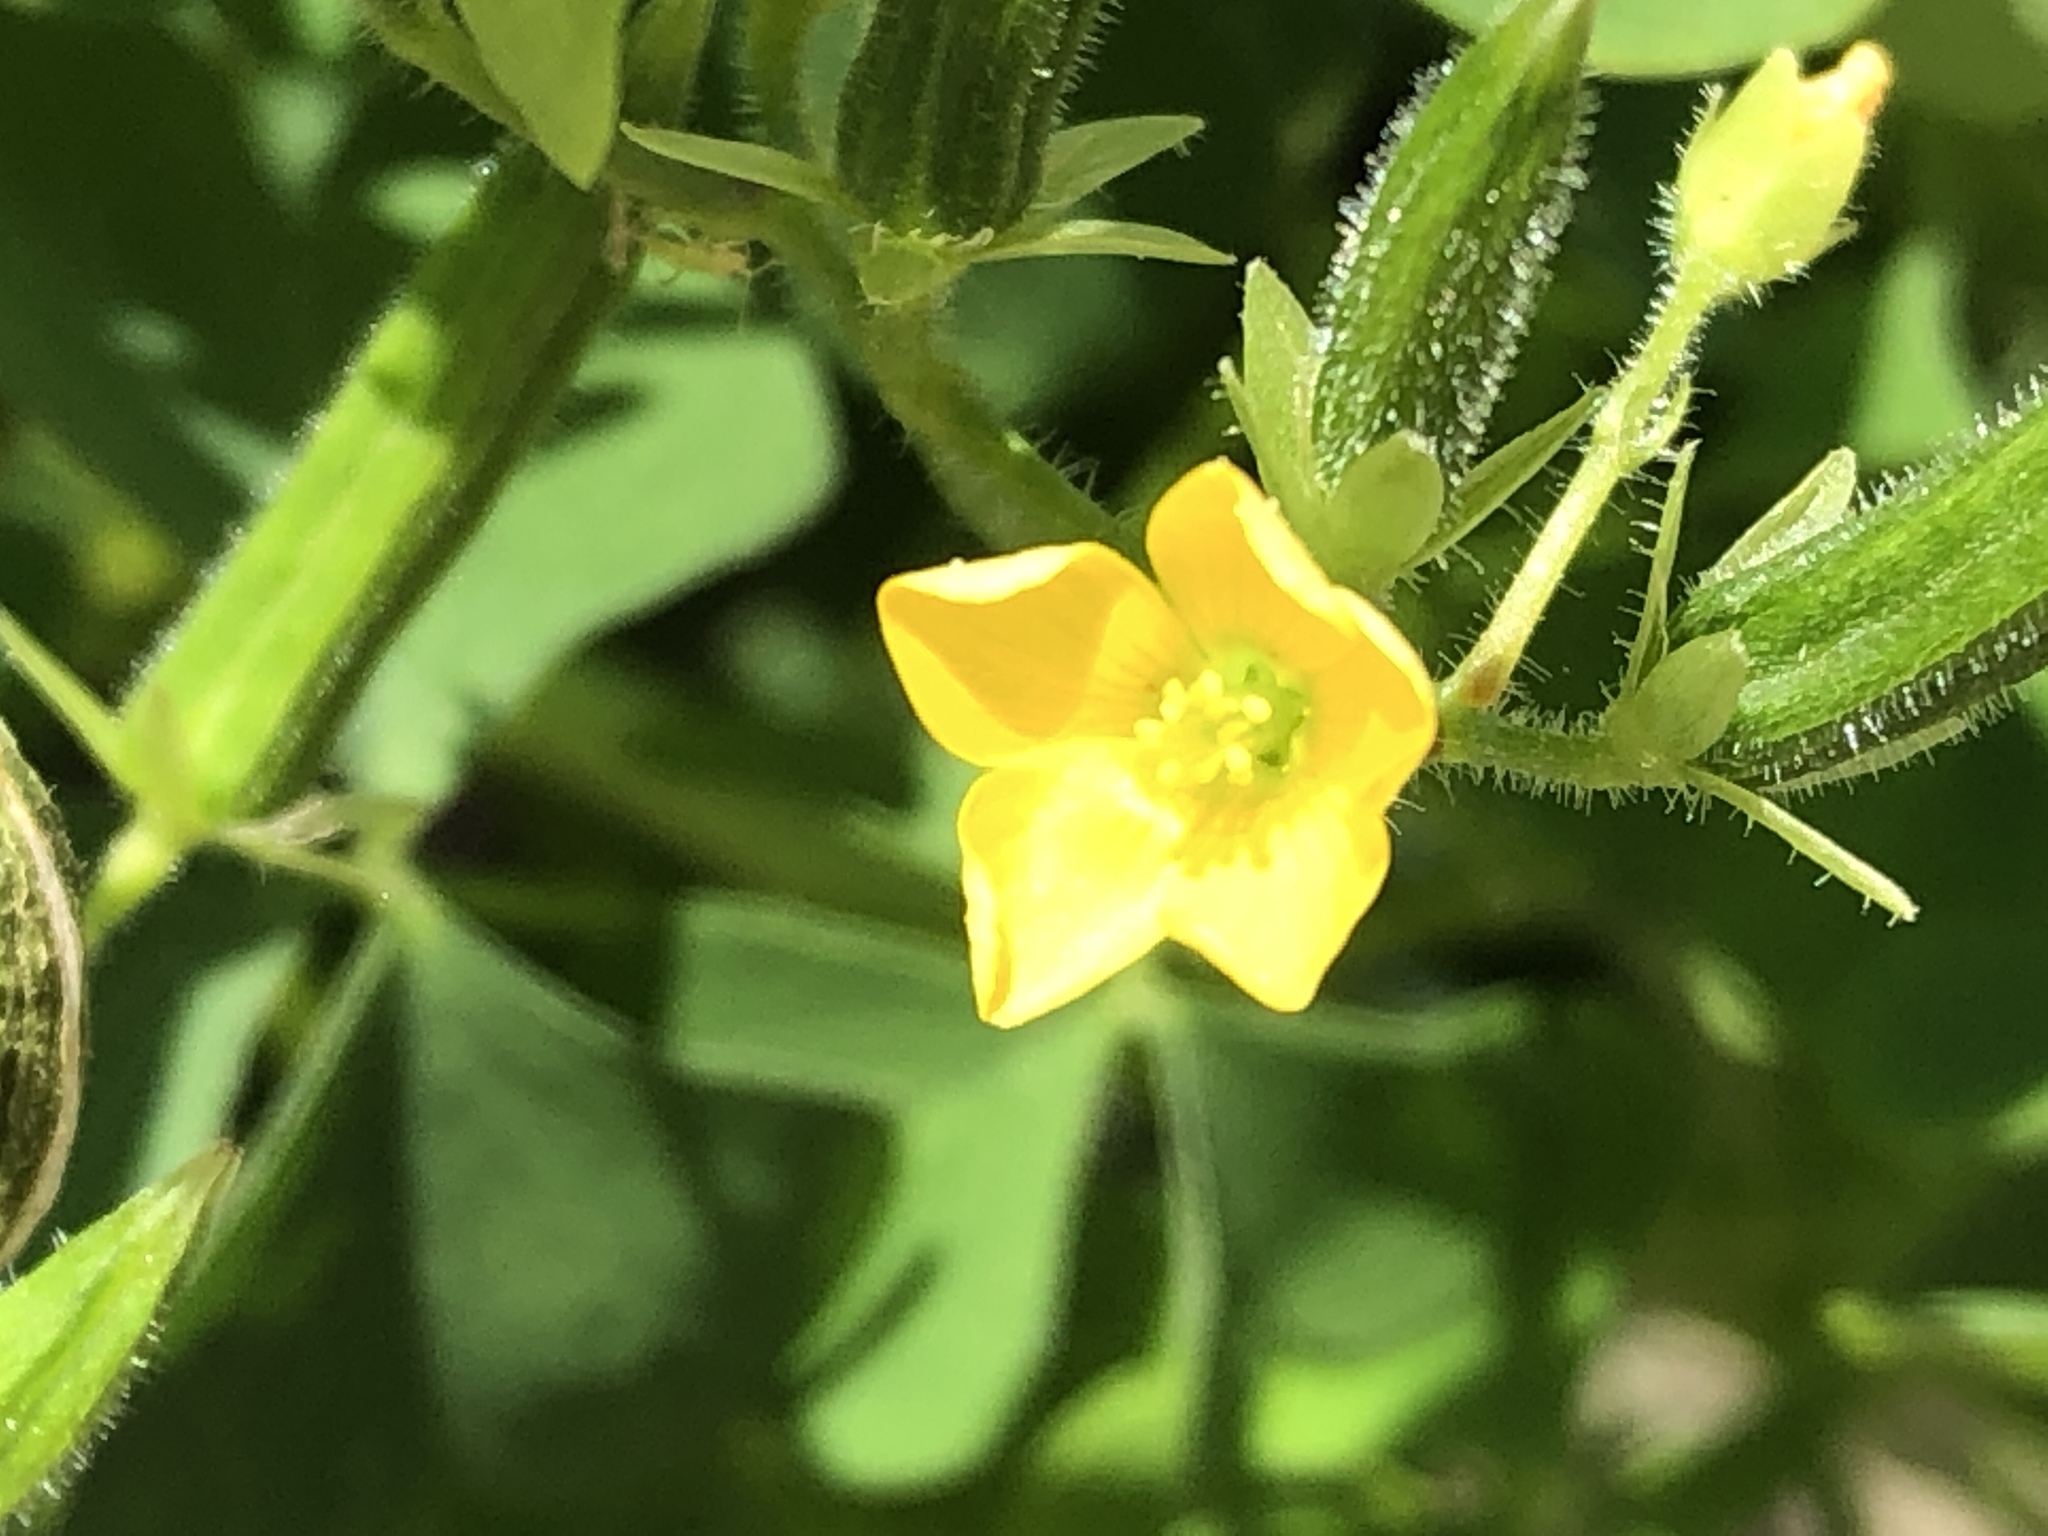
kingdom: Plantae
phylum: Tracheophyta
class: Magnoliopsida
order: Oxalidales
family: Oxalidaceae
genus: Oxalis
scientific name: Oxalis stricta
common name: Upright yellow-sorrel
